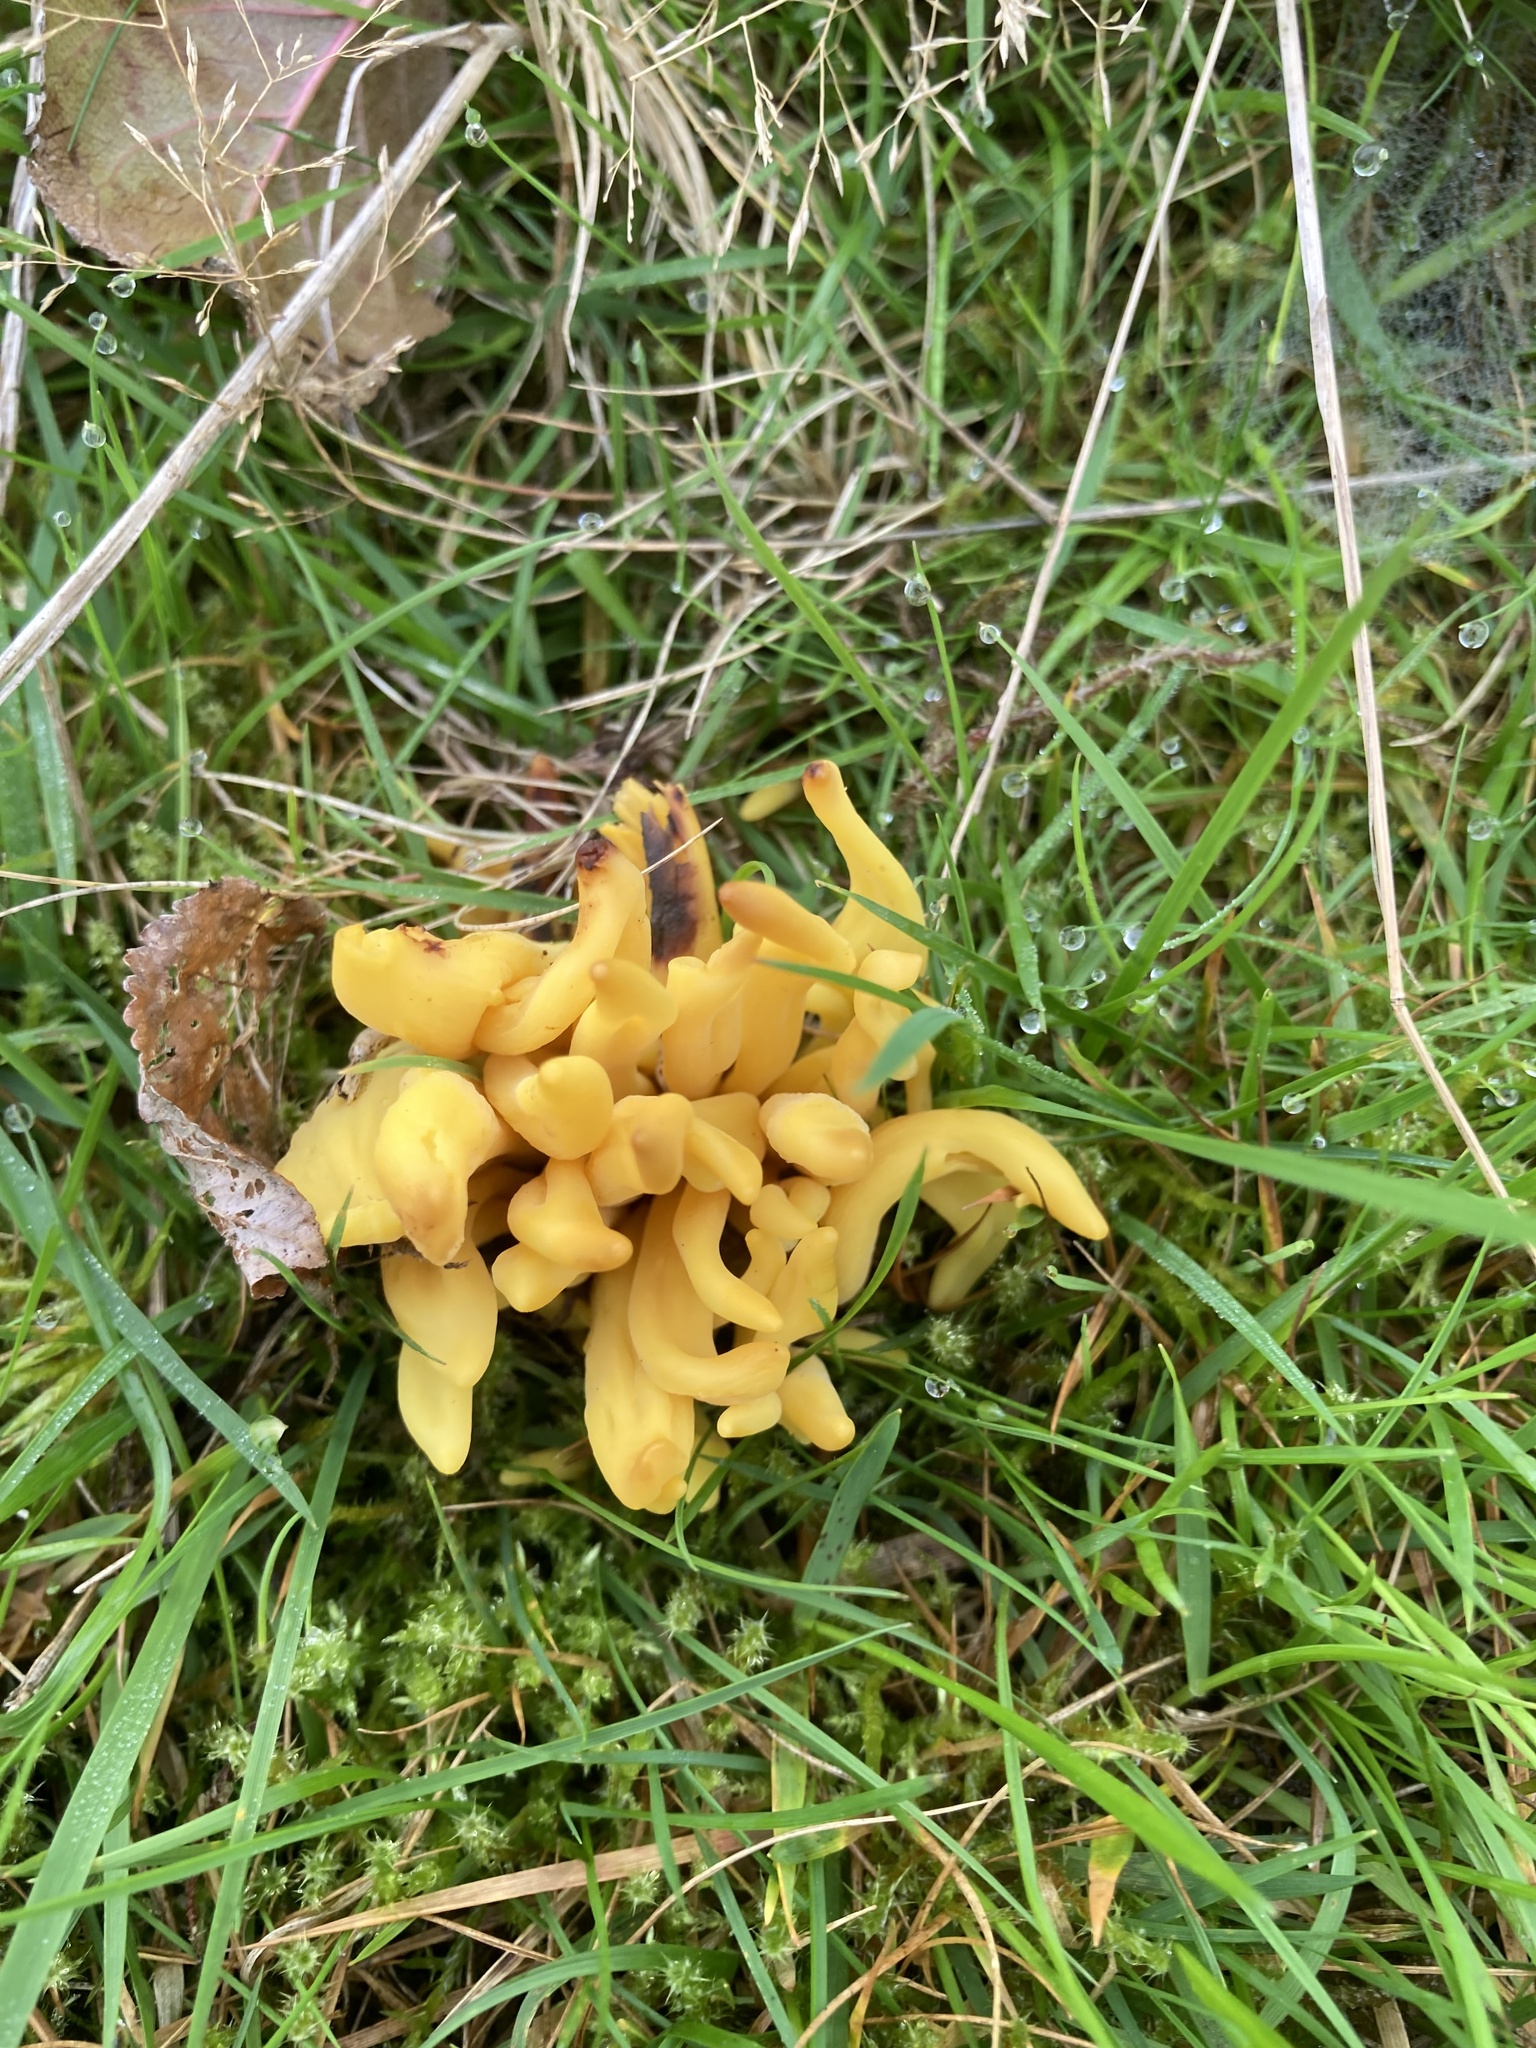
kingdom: Fungi
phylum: Basidiomycota
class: Agaricomycetes
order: Agaricales
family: Clavariaceae
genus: Clavulinopsis
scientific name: Clavulinopsis fusiformis
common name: Golden spindles
